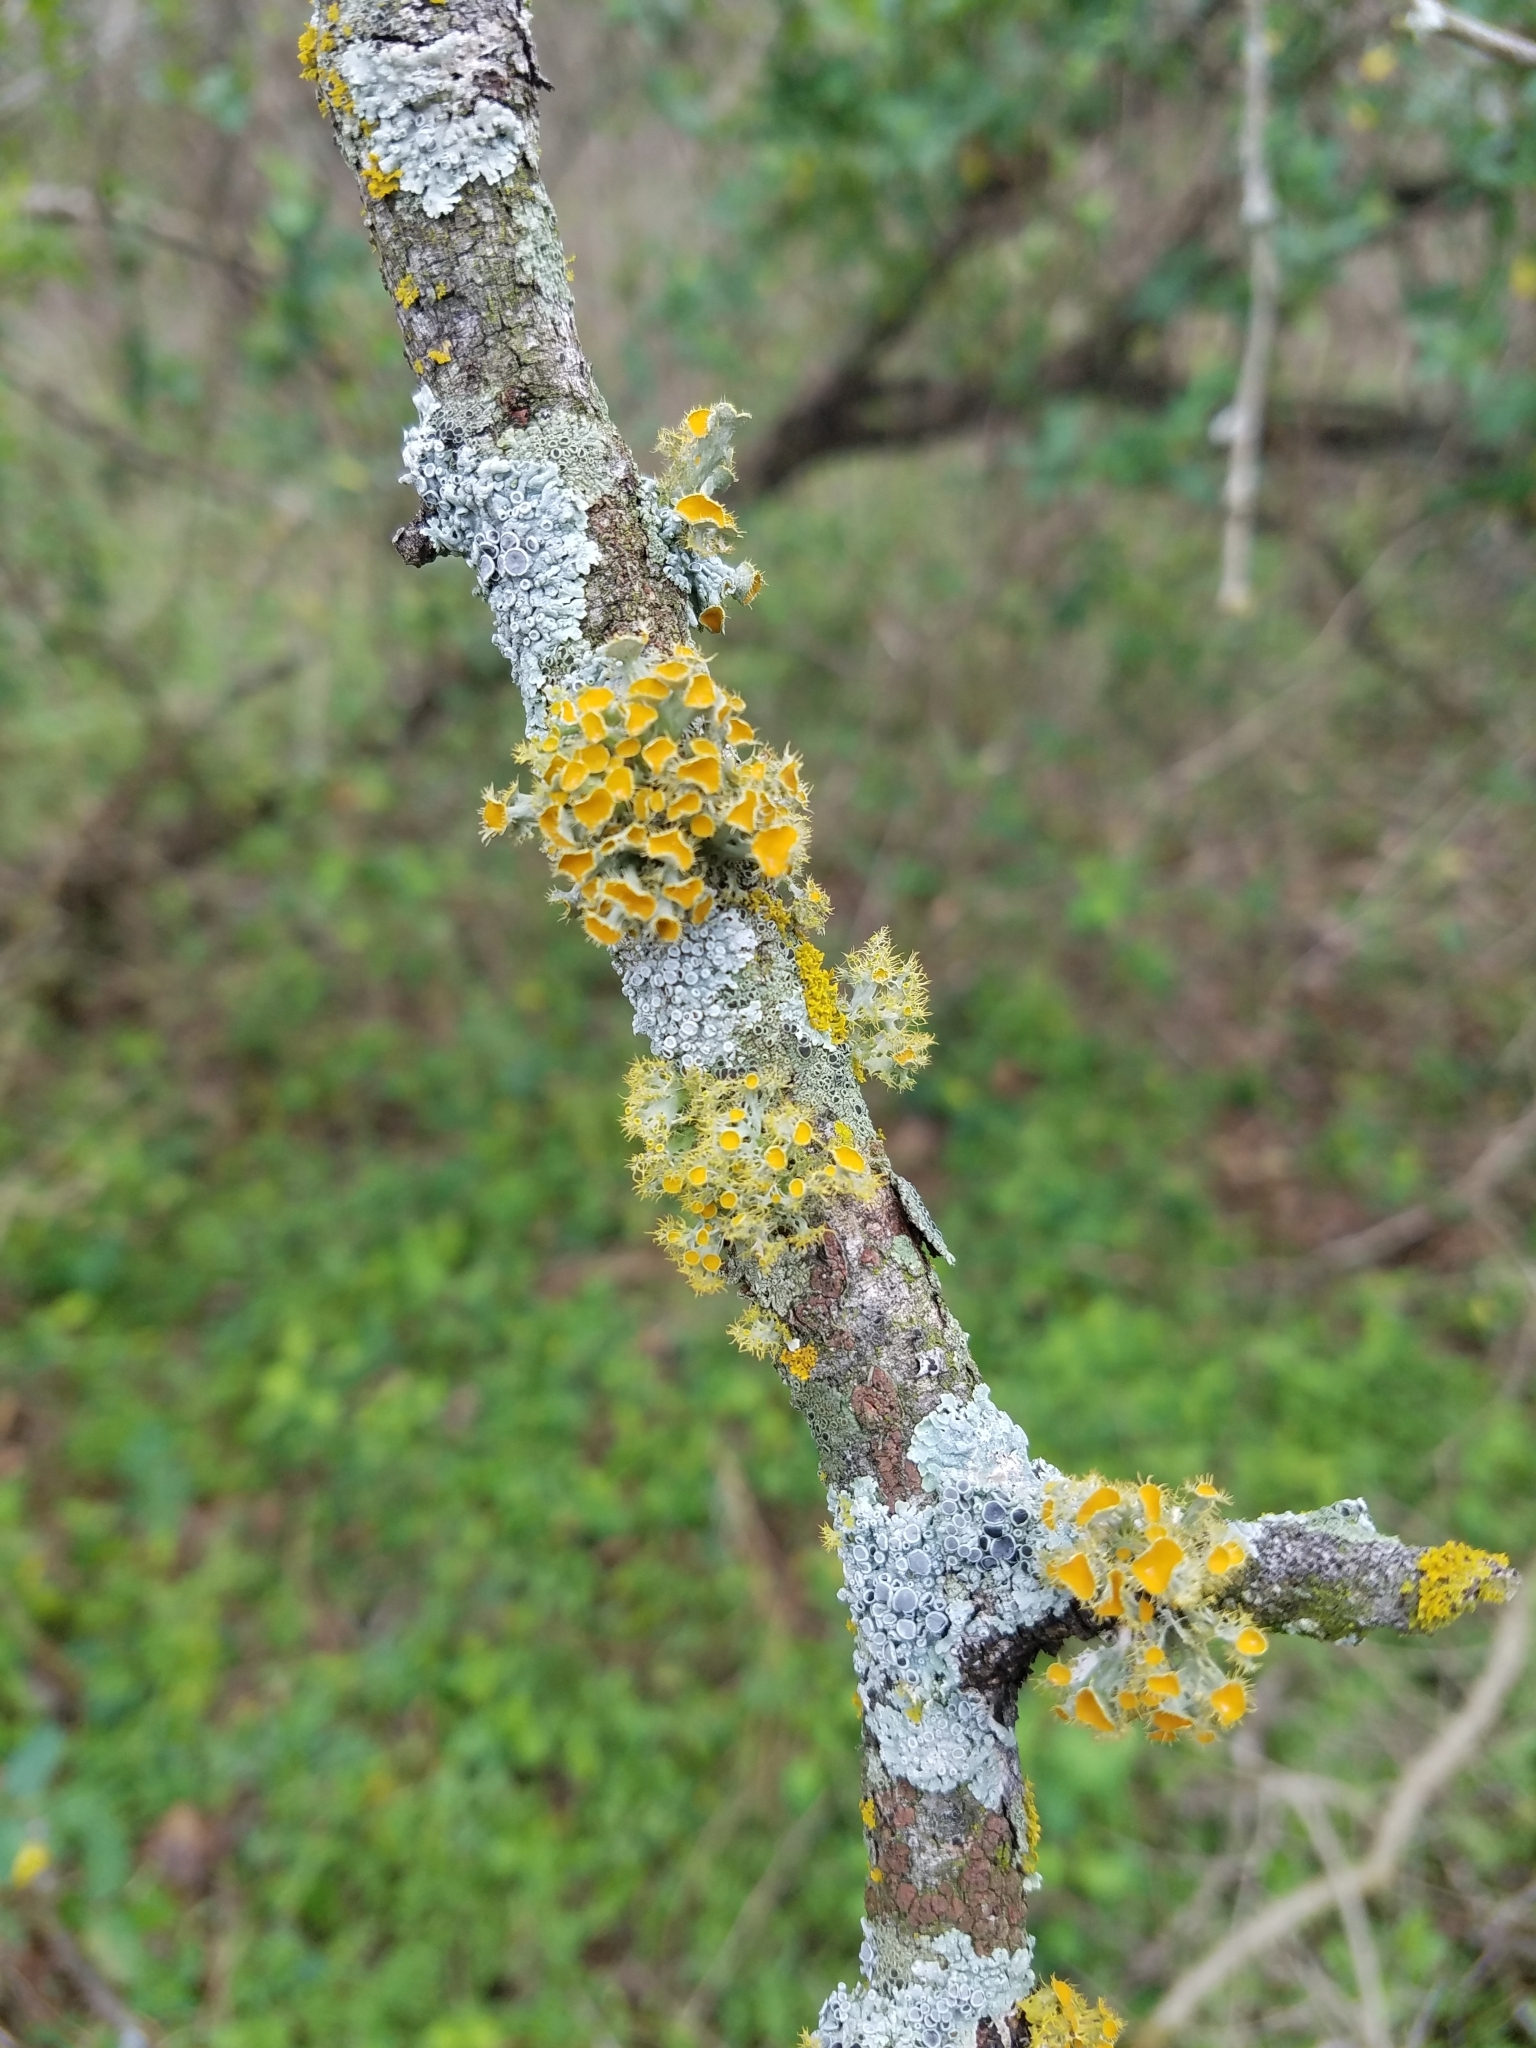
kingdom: Plantae
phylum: Tracheophyta
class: Magnoliopsida
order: Dipsacales
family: Caprifoliaceae
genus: Lonicera
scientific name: Lonicera japonica
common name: Japanese honeysuckle
